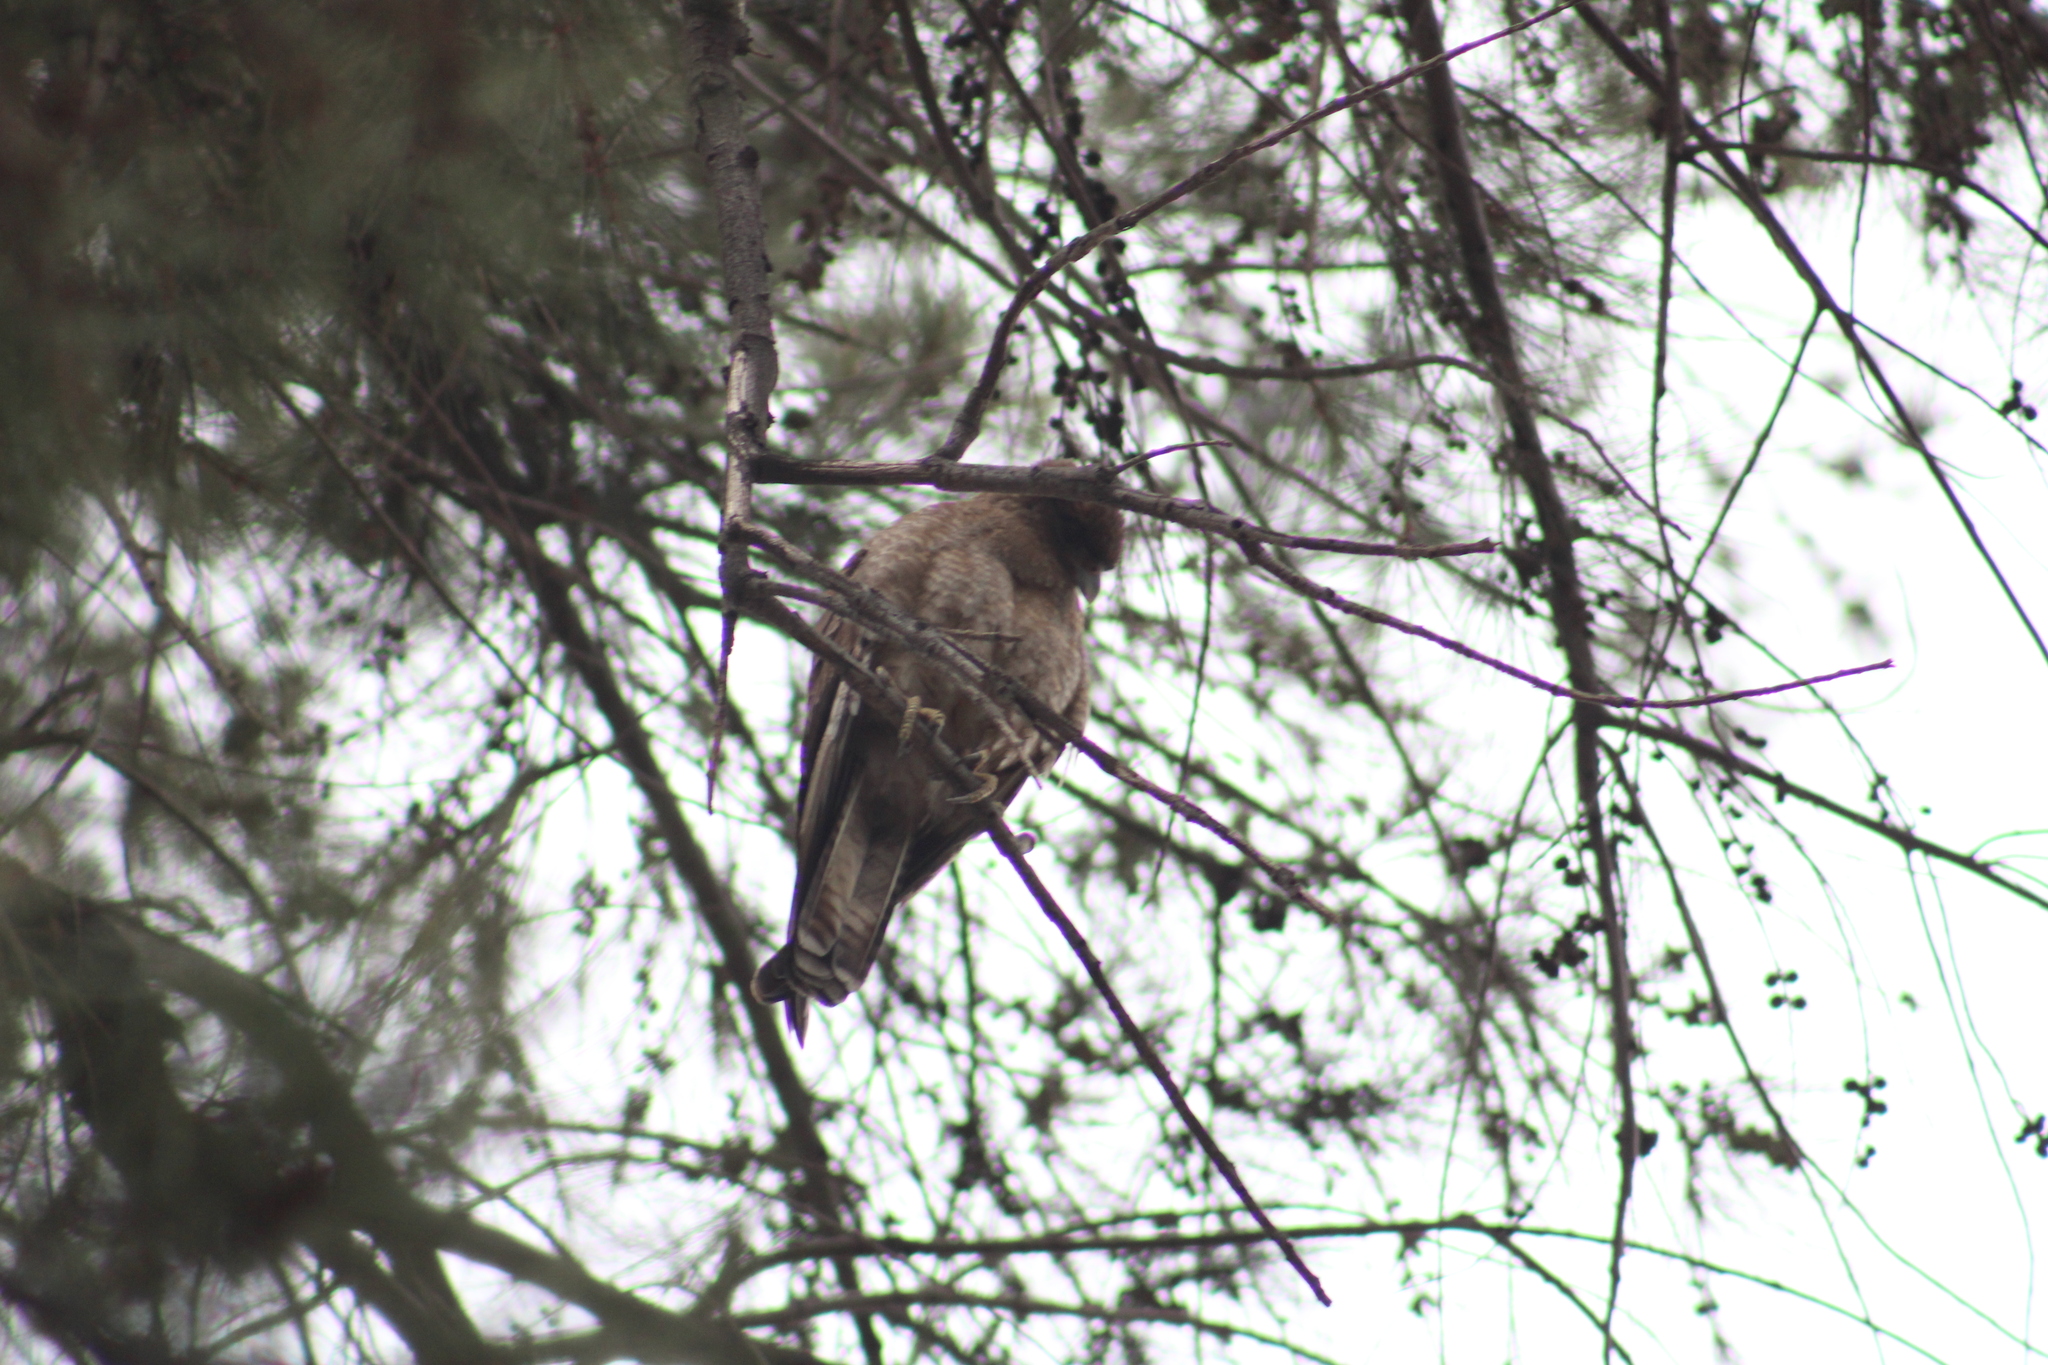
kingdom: Animalia
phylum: Chordata
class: Aves
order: Falconiformes
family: Falconidae
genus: Daptrius
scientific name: Daptrius
